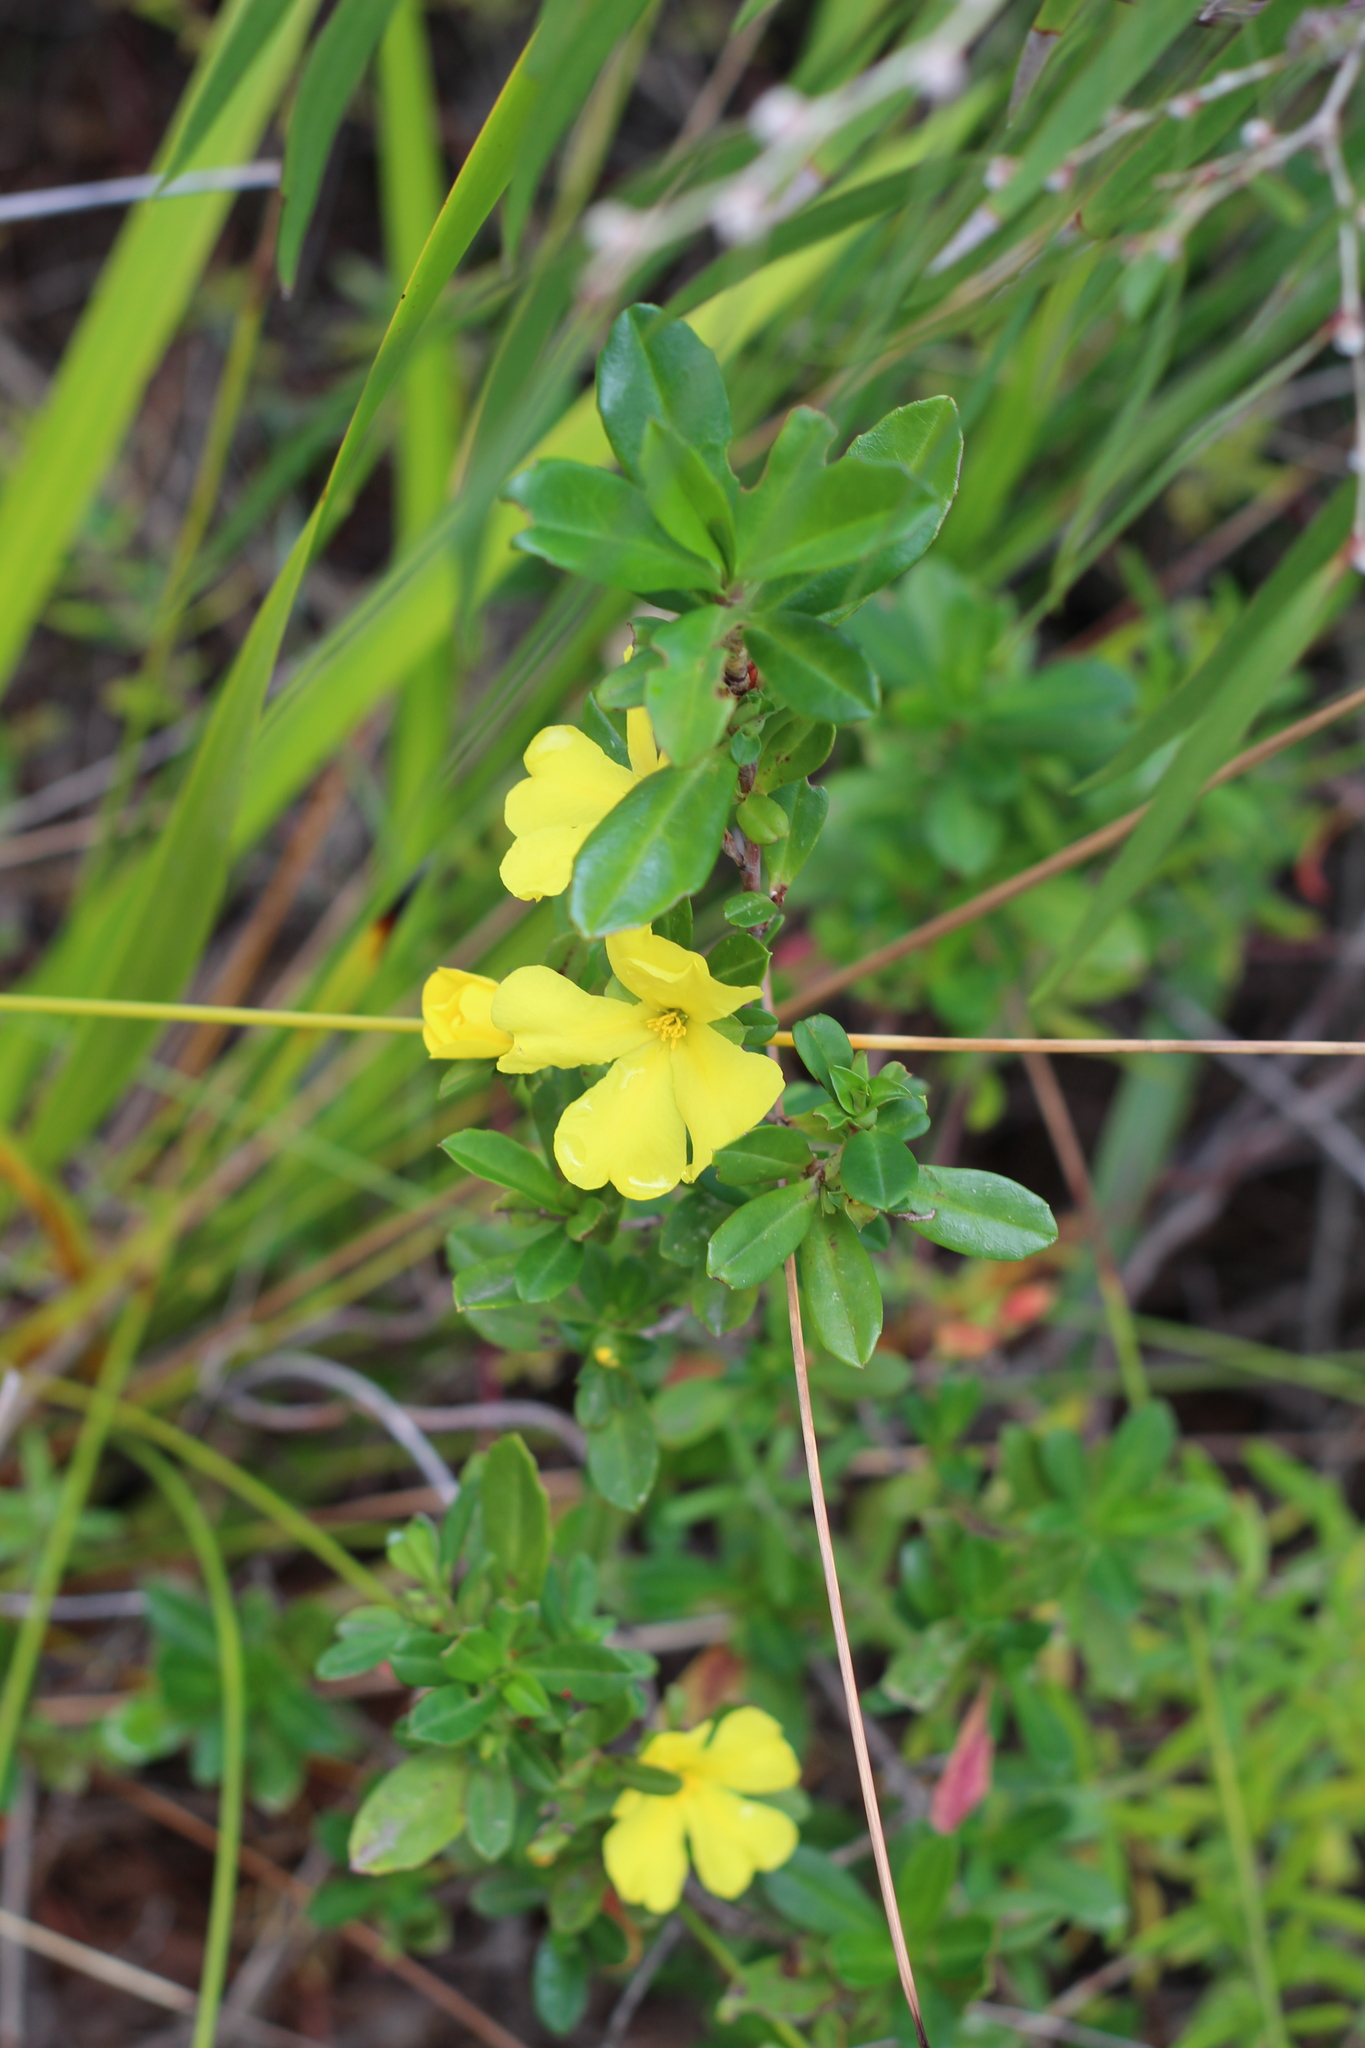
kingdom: Plantae
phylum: Tracheophyta
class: Magnoliopsida
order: Dilleniales
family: Dilleniaceae
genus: Hibbertia
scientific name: Hibbertia cuneiformis
